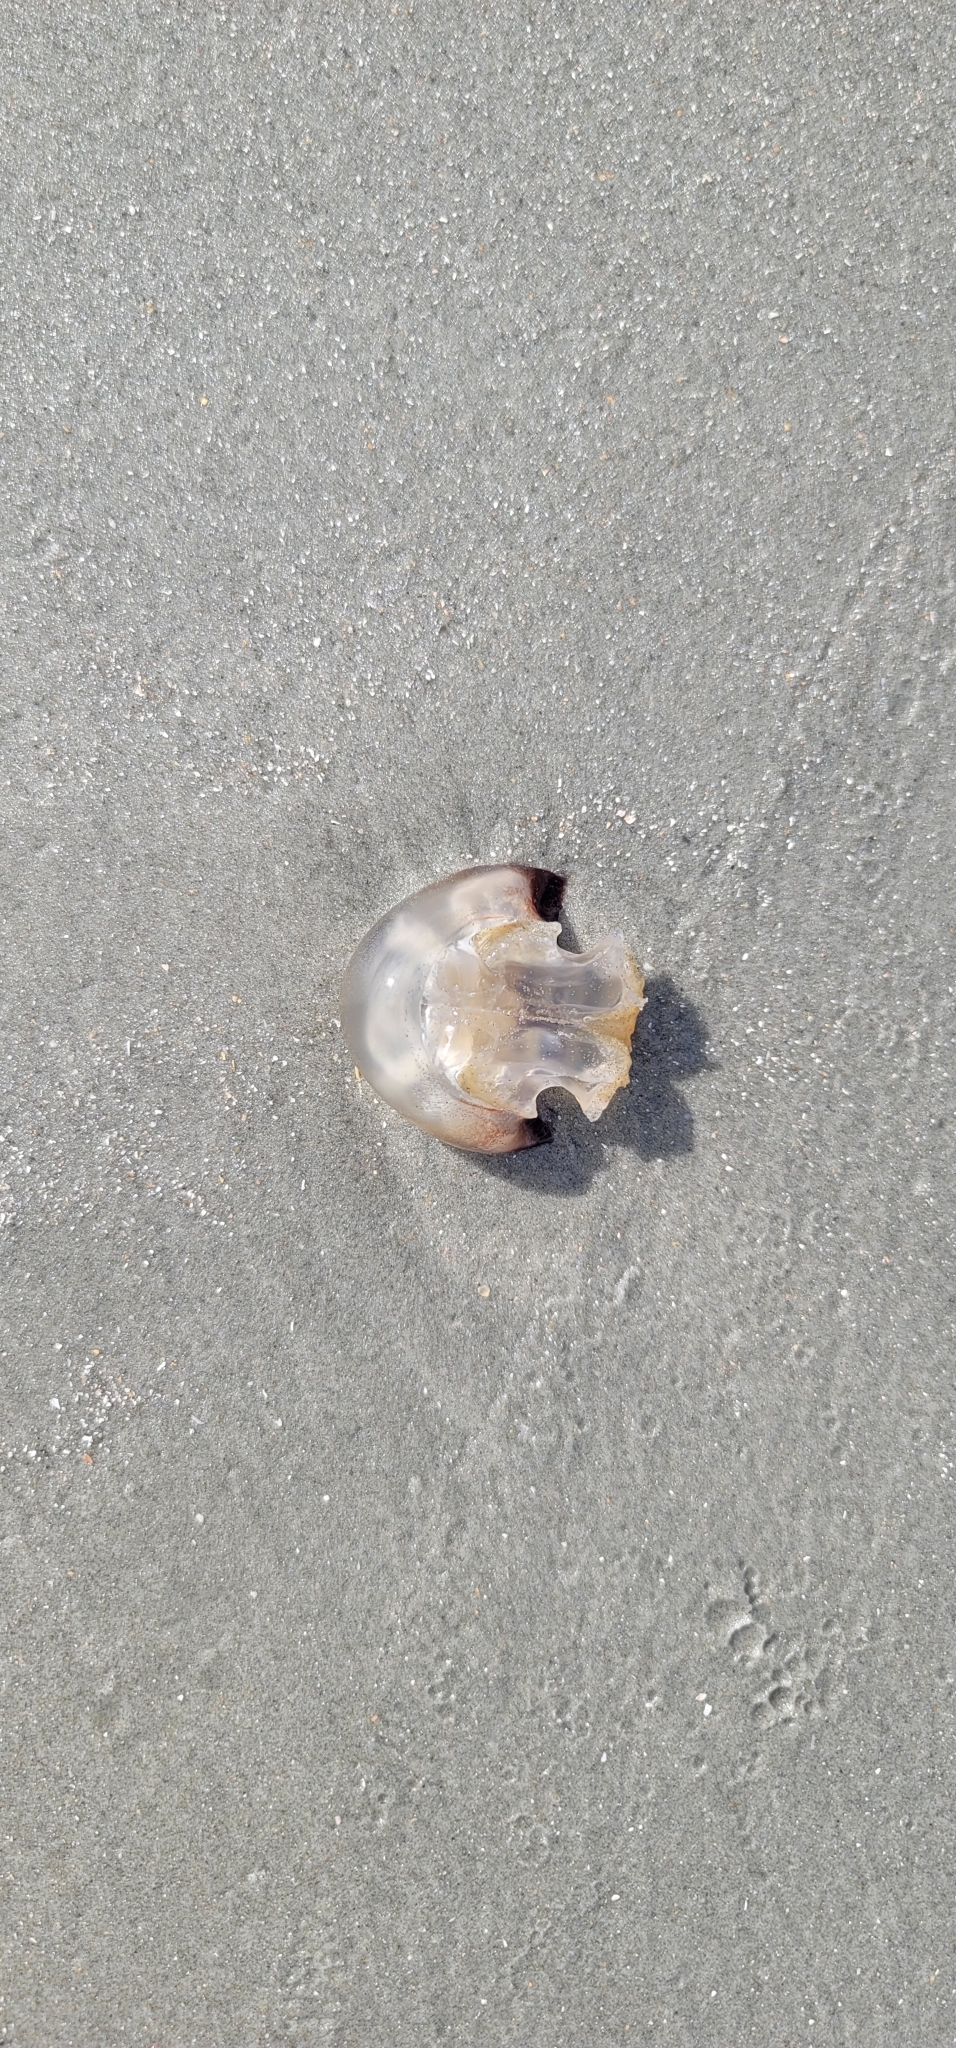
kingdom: Animalia
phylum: Cnidaria
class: Scyphozoa
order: Rhizostomeae
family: Stomolophidae
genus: Stomolophus
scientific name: Stomolophus meleagris
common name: Cabbagehead
